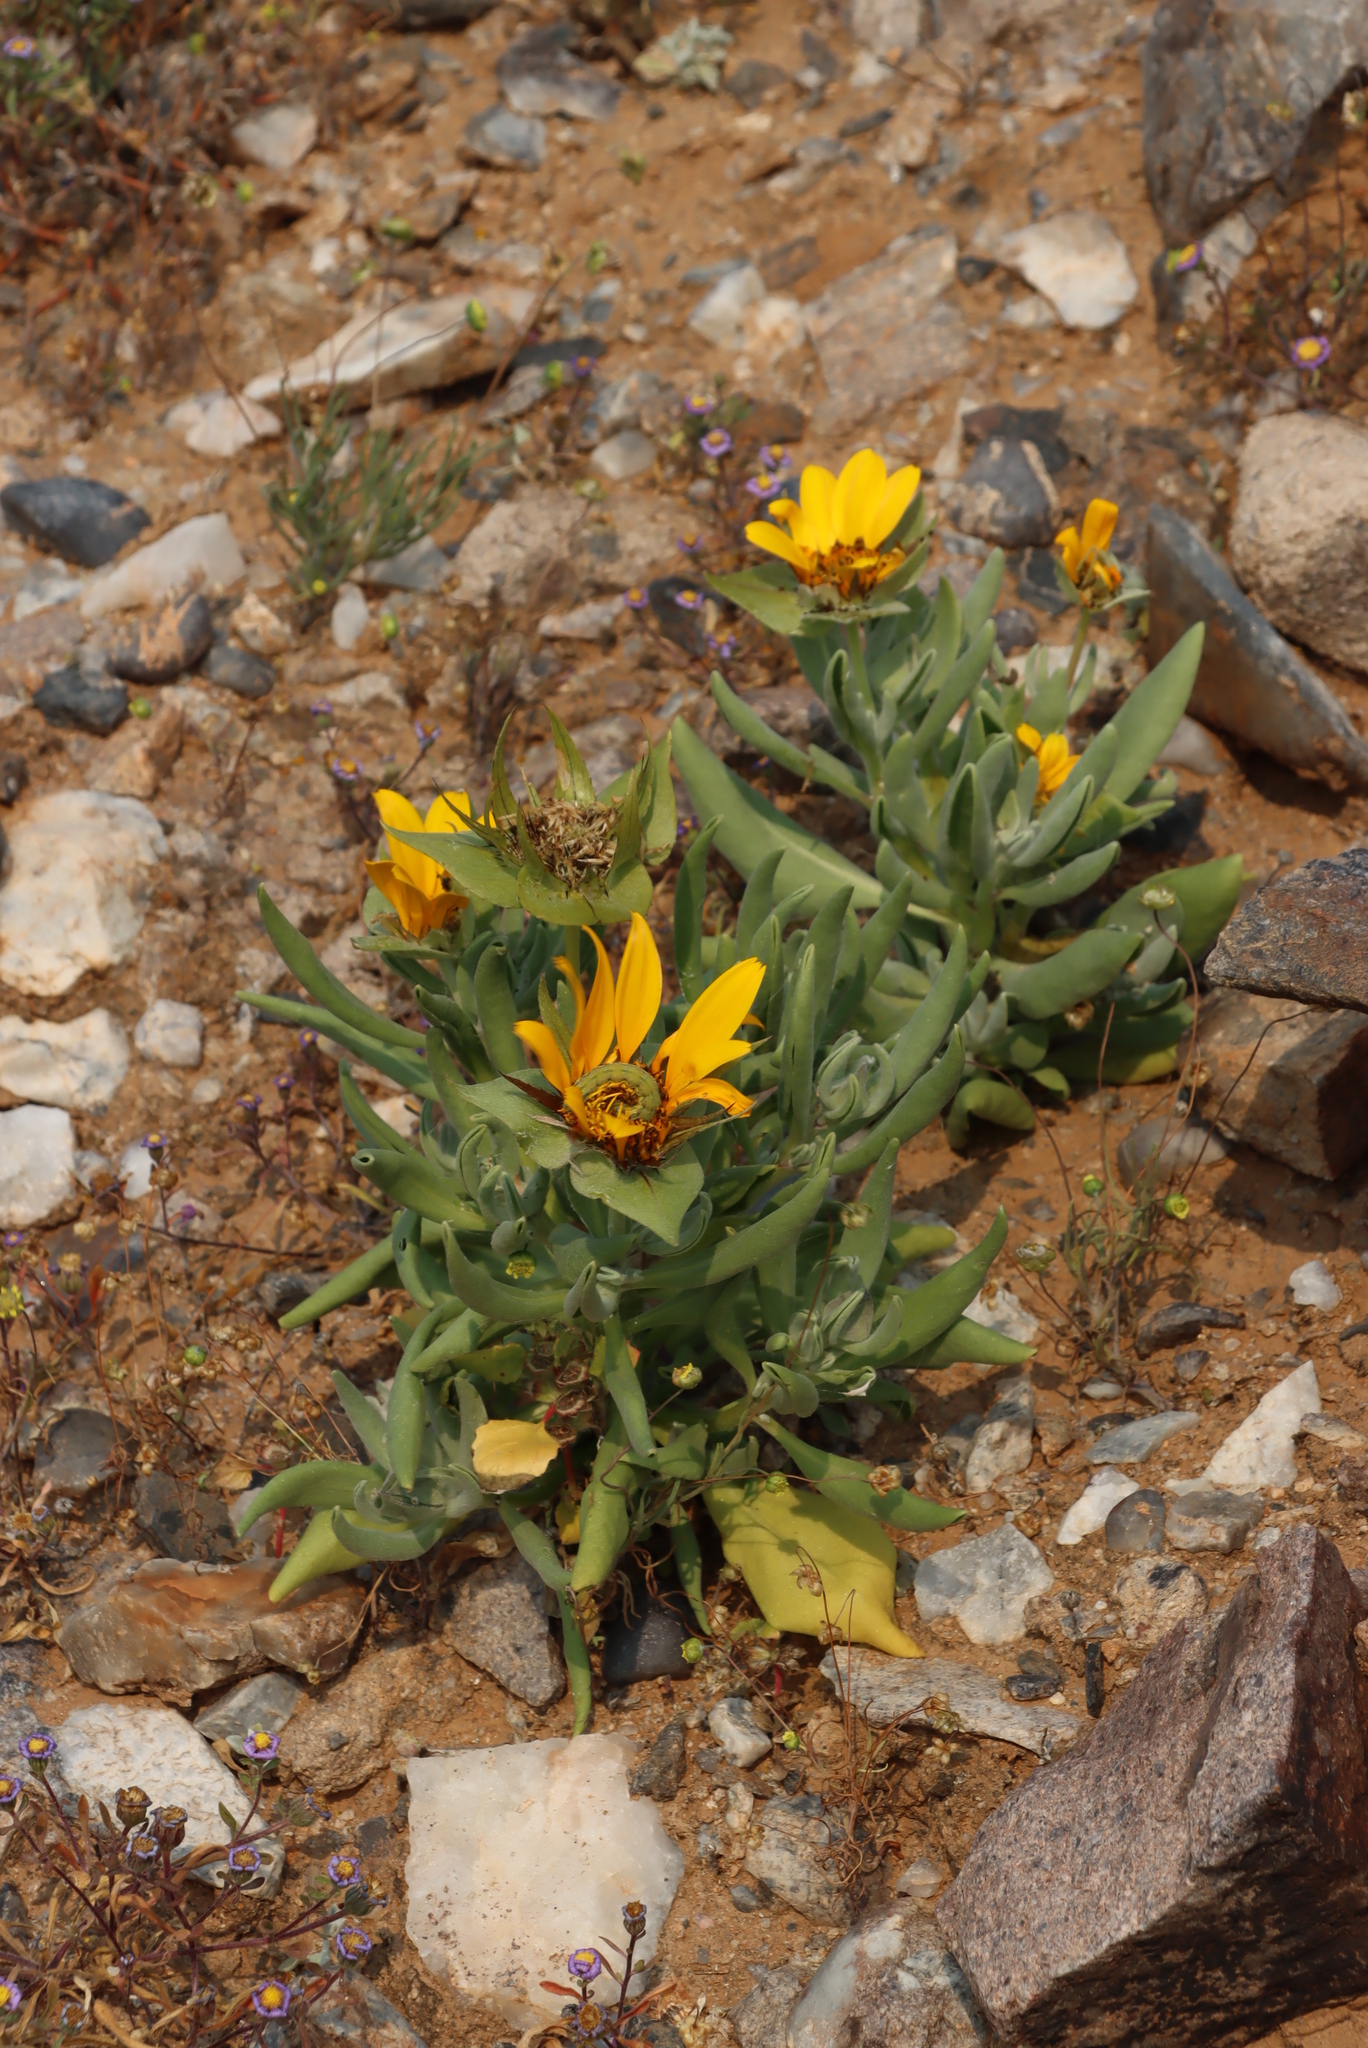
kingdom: Plantae
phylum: Tracheophyta
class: Magnoliopsida
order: Asterales
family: Asteraceae
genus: Didelta
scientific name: Didelta carnosa
